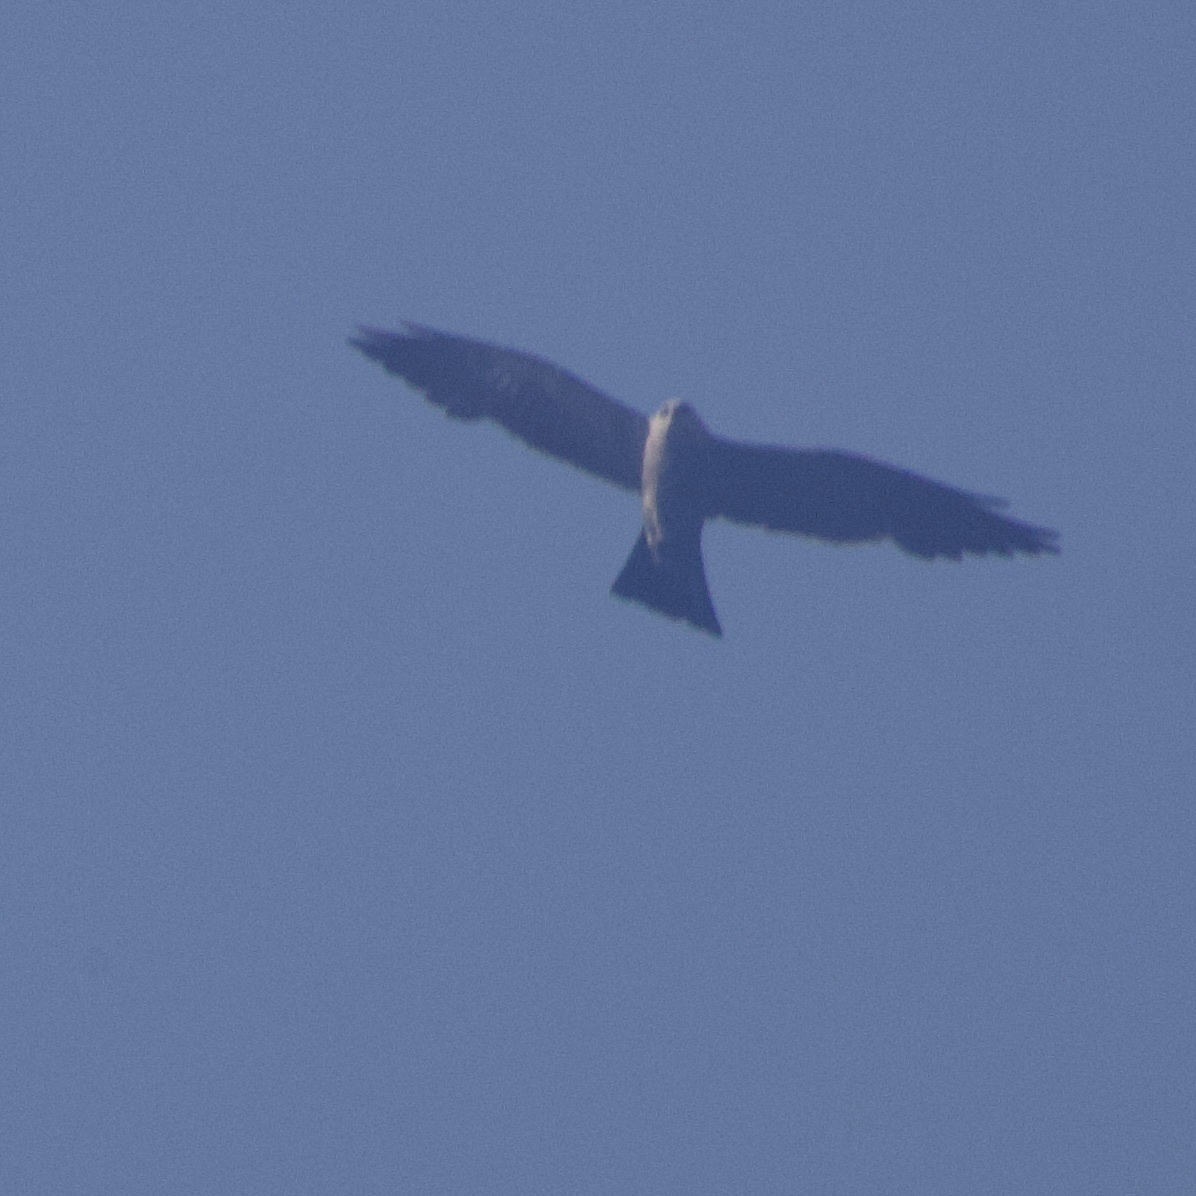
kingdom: Animalia
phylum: Chordata
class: Aves
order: Accipitriformes
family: Accipitridae
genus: Ictinia
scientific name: Ictinia mississippiensis
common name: Mississippi kite
